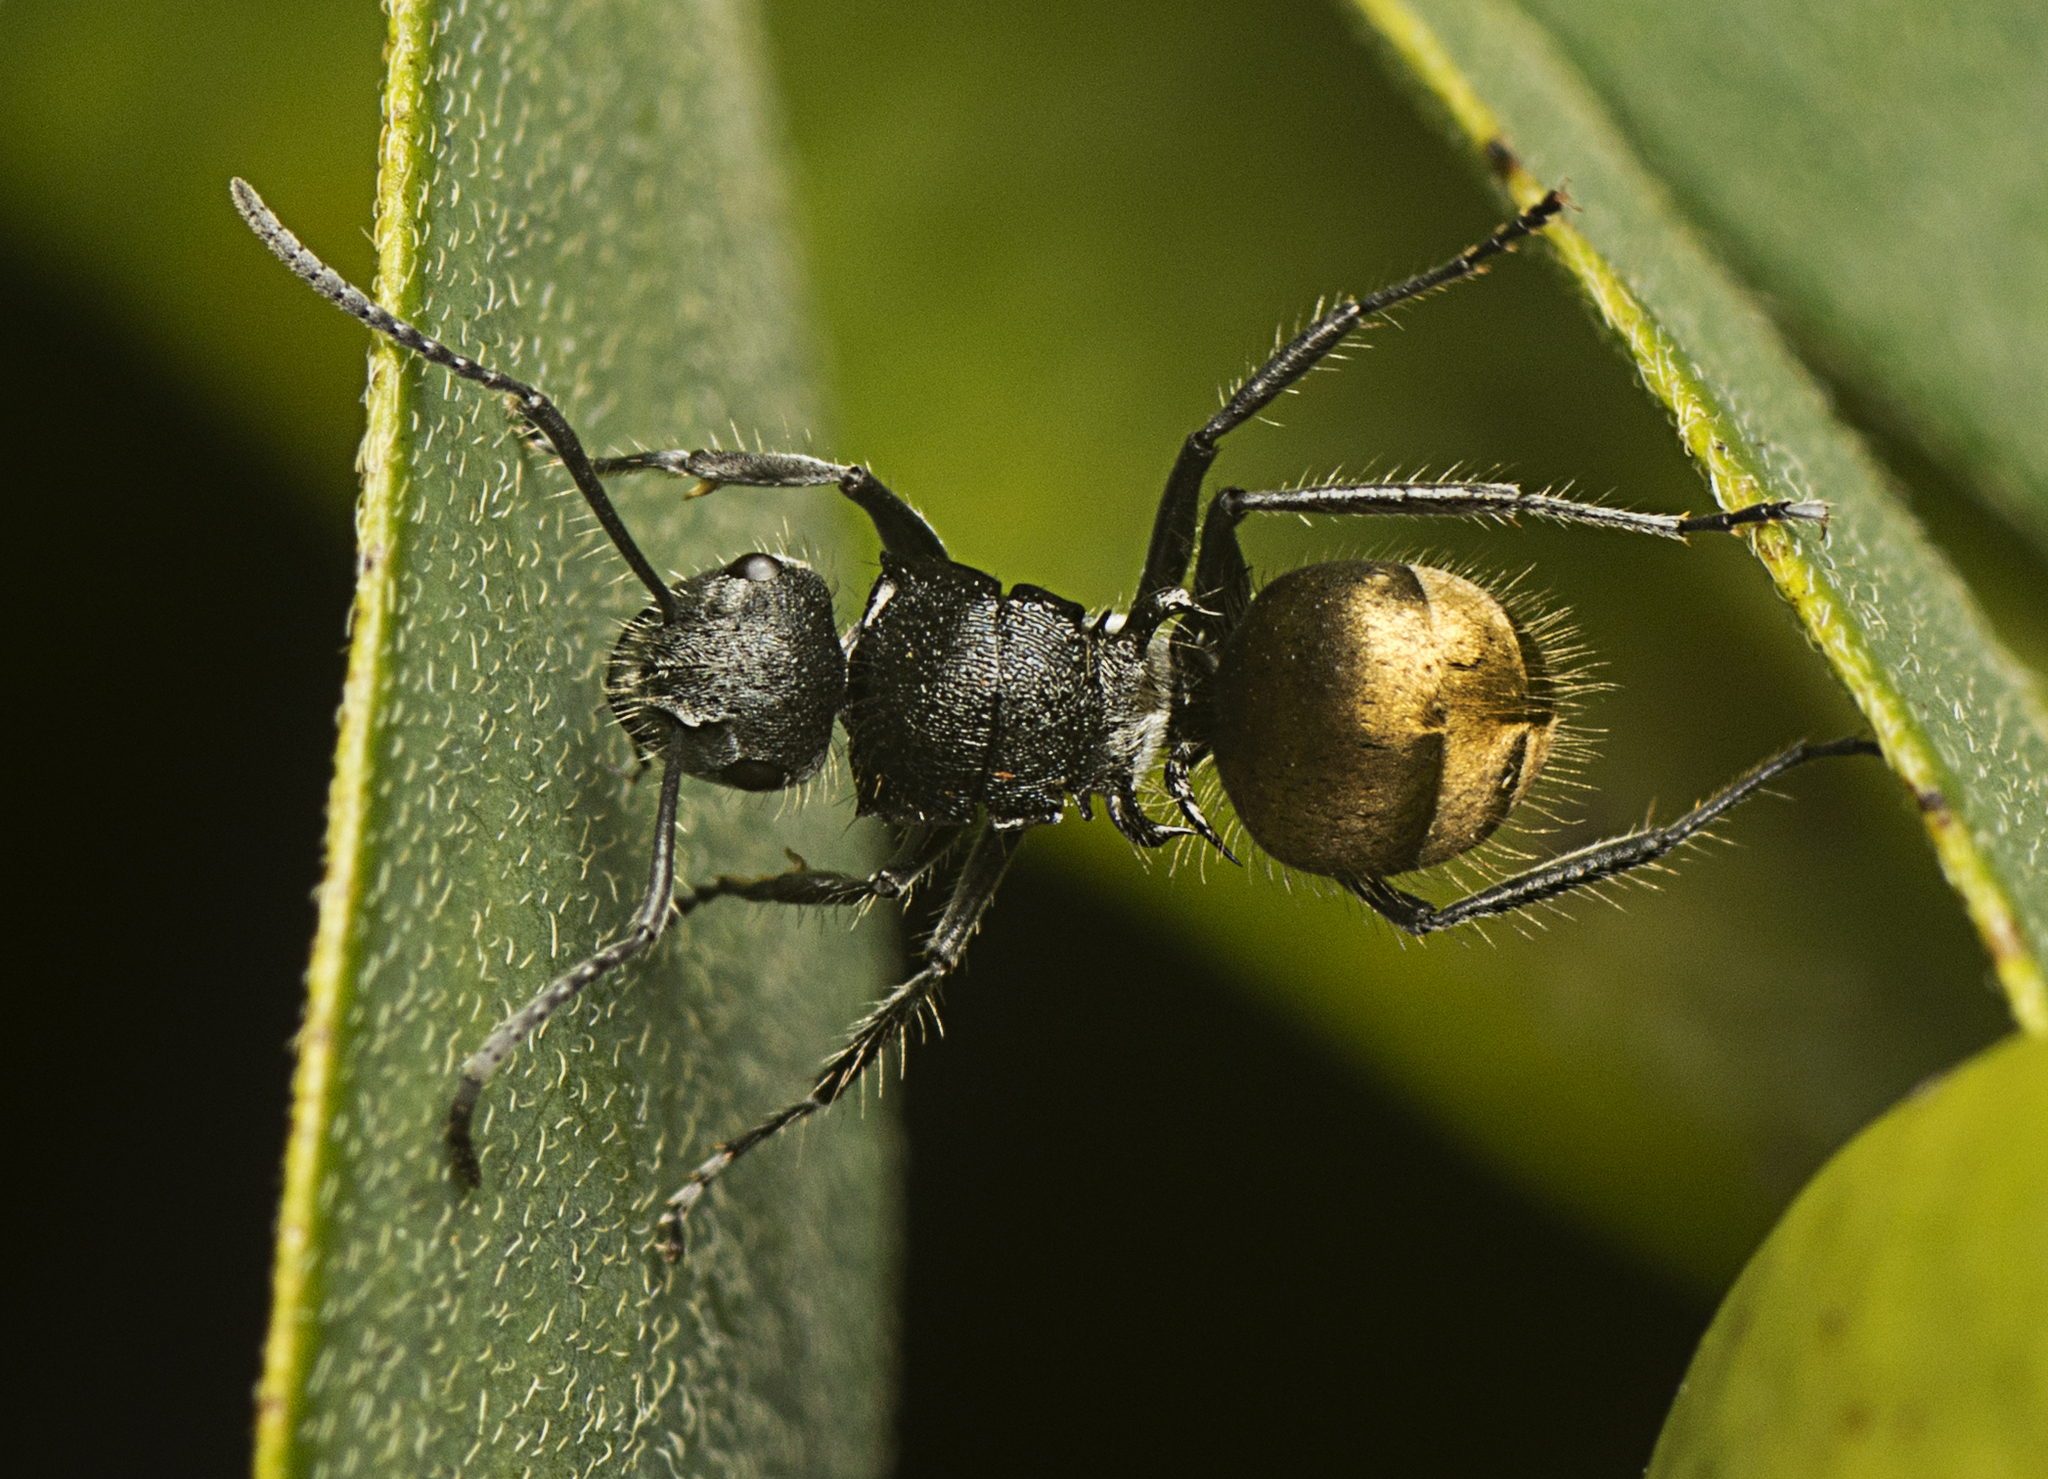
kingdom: Animalia
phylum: Arthropoda
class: Insecta
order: Hymenoptera
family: Formicidae
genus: Polyrhachis
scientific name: Polyrhachis schoopae
